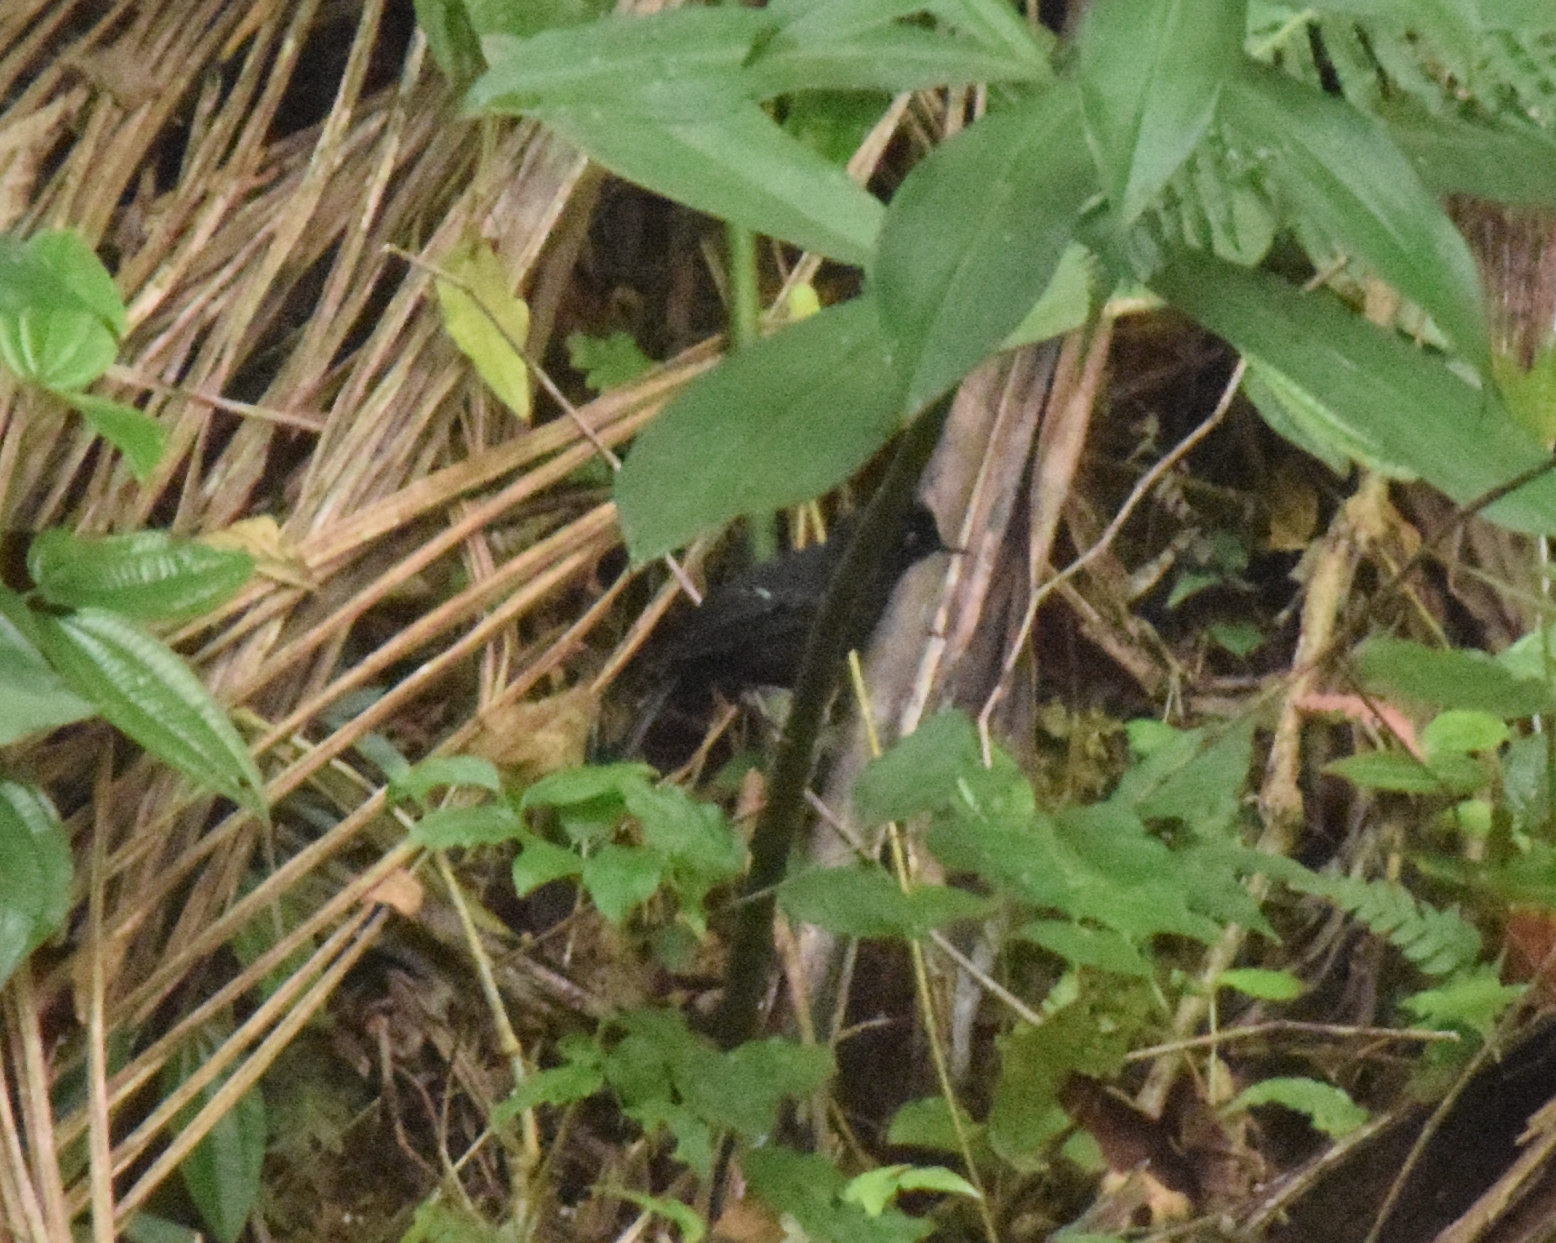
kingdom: Animalia
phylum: Chordata
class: Aves
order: Passeriformes
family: Thamnophilidae
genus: Pyriglena
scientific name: Pyriglena leucoptera
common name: White-shouldered fire-eye
